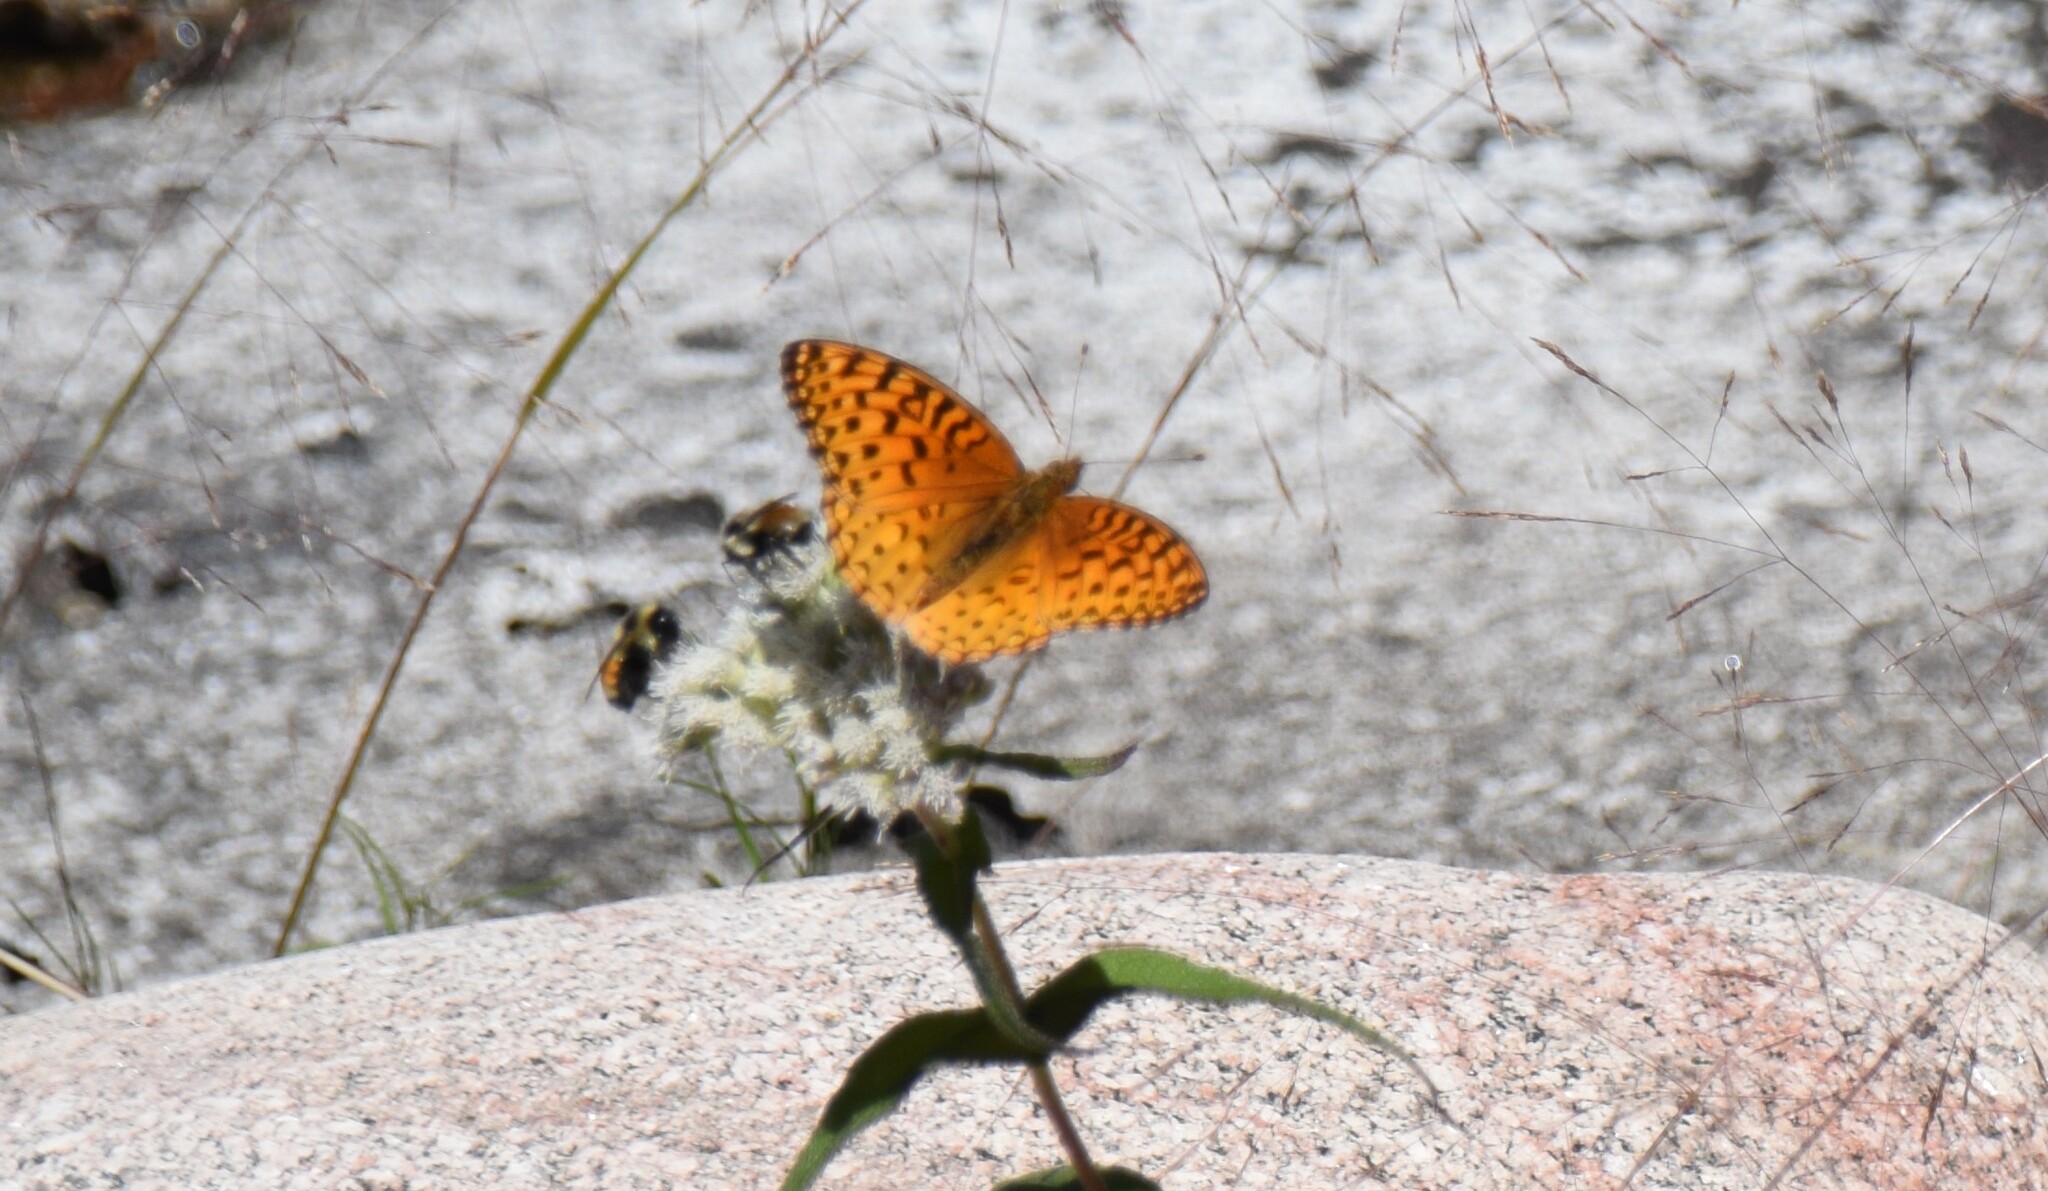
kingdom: Animalia
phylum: Arthropoda
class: Insecta
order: Lepidoptera
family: Nymphalidae
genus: Speyeria
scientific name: Speyeria aphrodite
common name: Aphrodite friitllary
